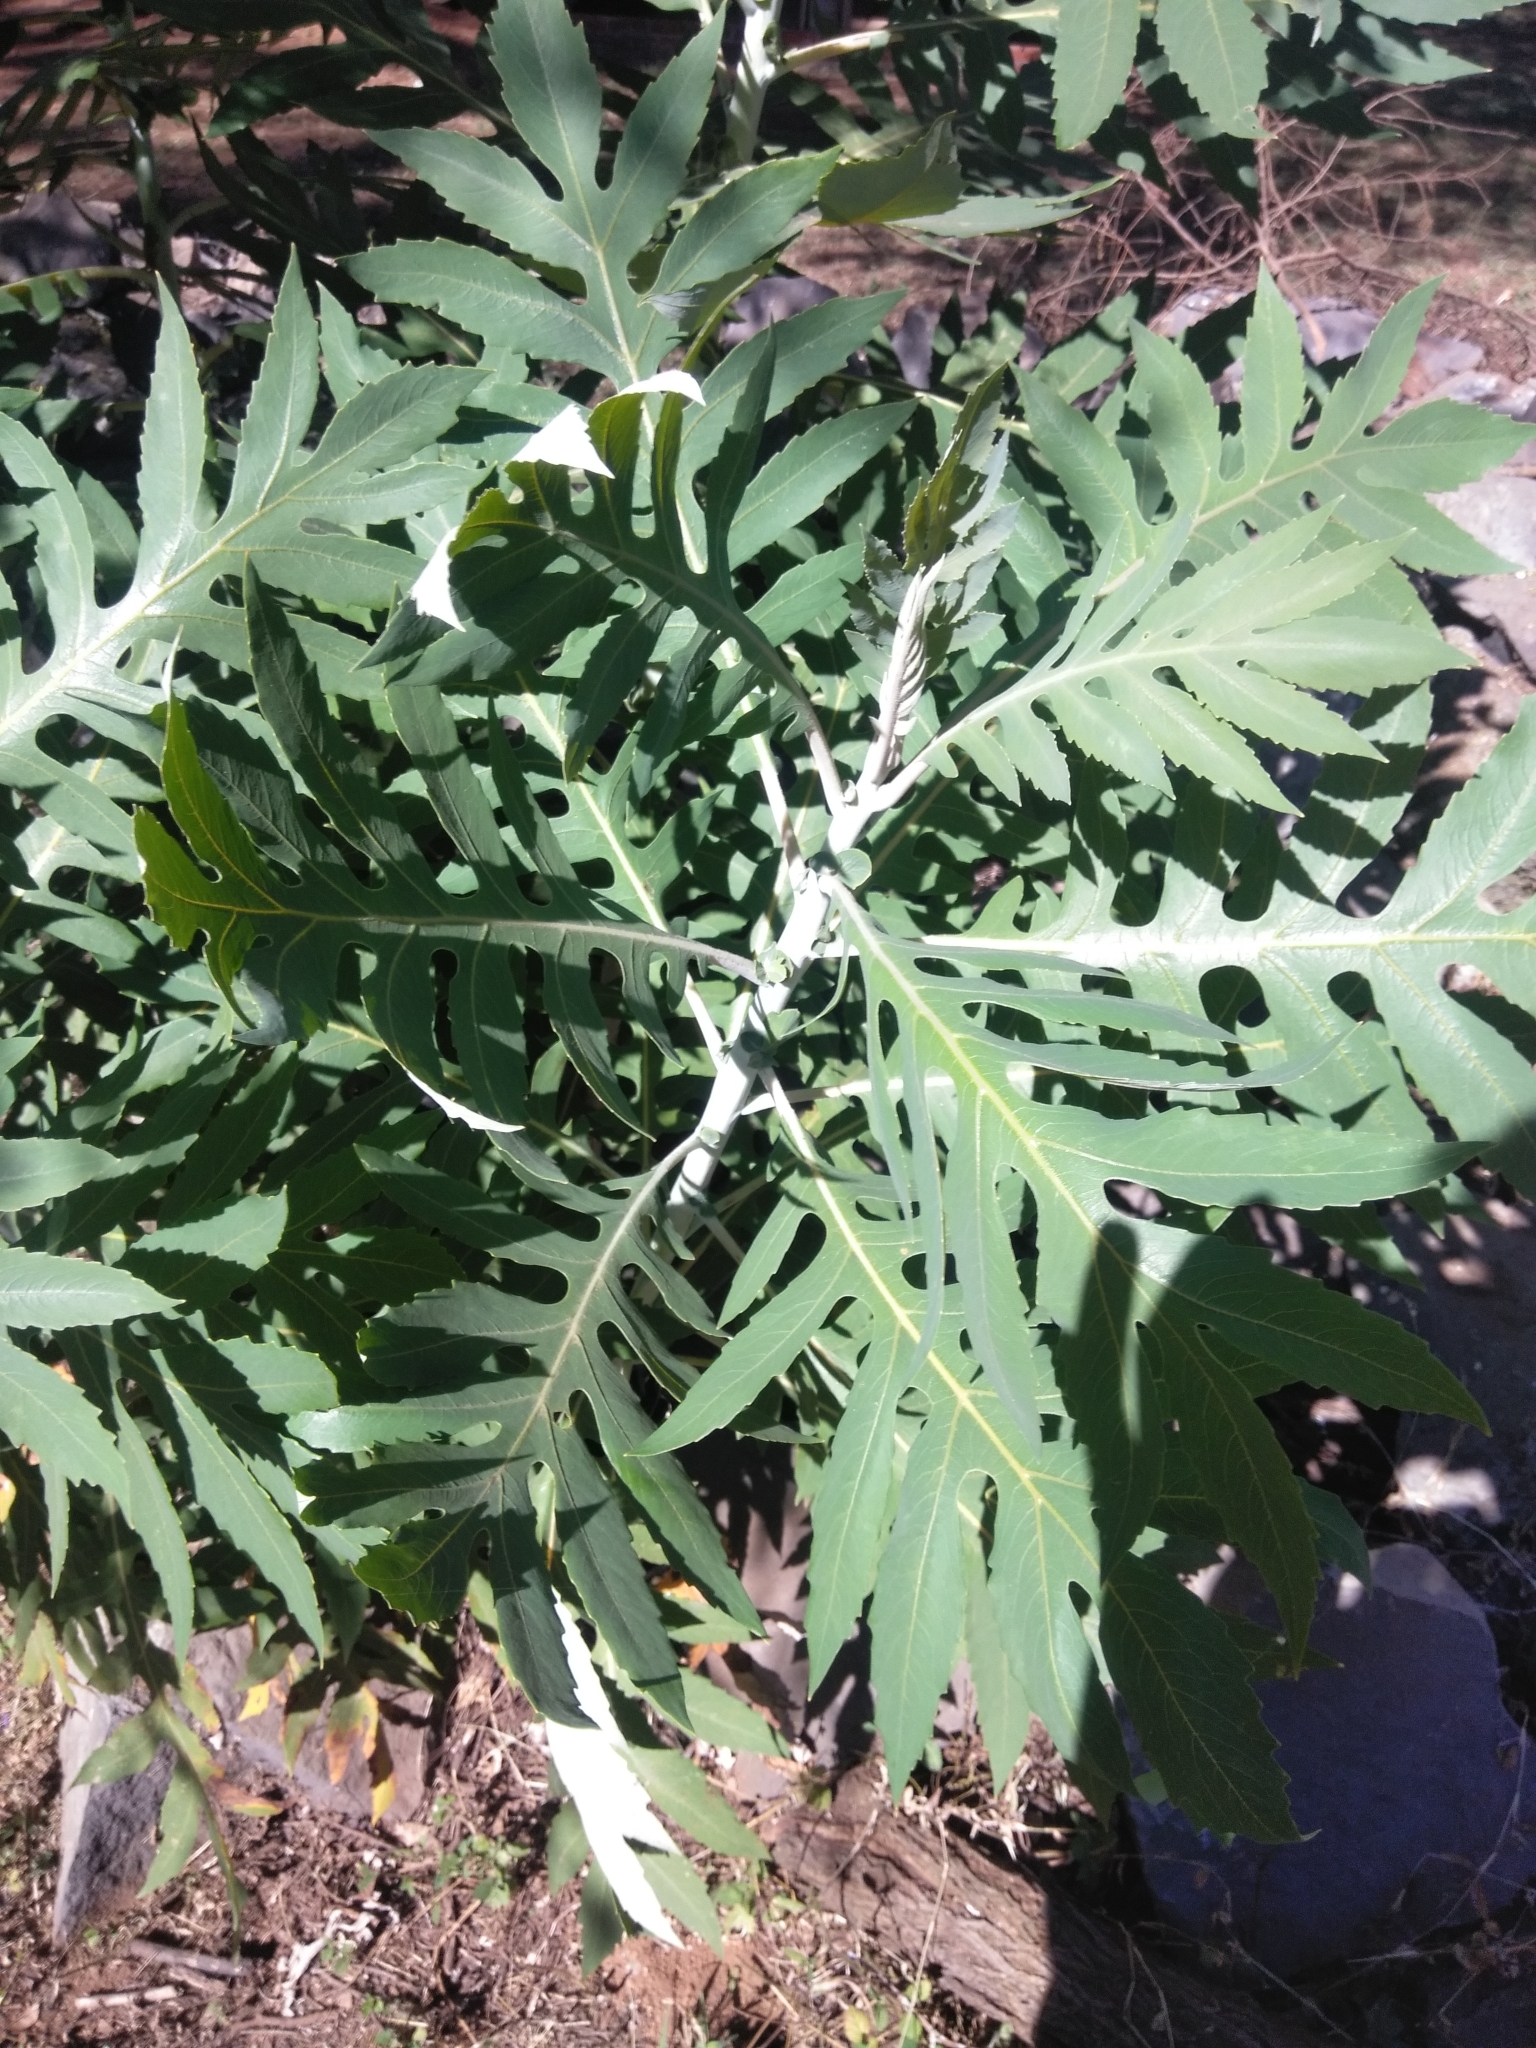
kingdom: Plantae
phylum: Tracheophyta
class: Magnoliopsida
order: Ranunculales
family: Papaveraceae
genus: Bocconia
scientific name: Bocconia arborea
